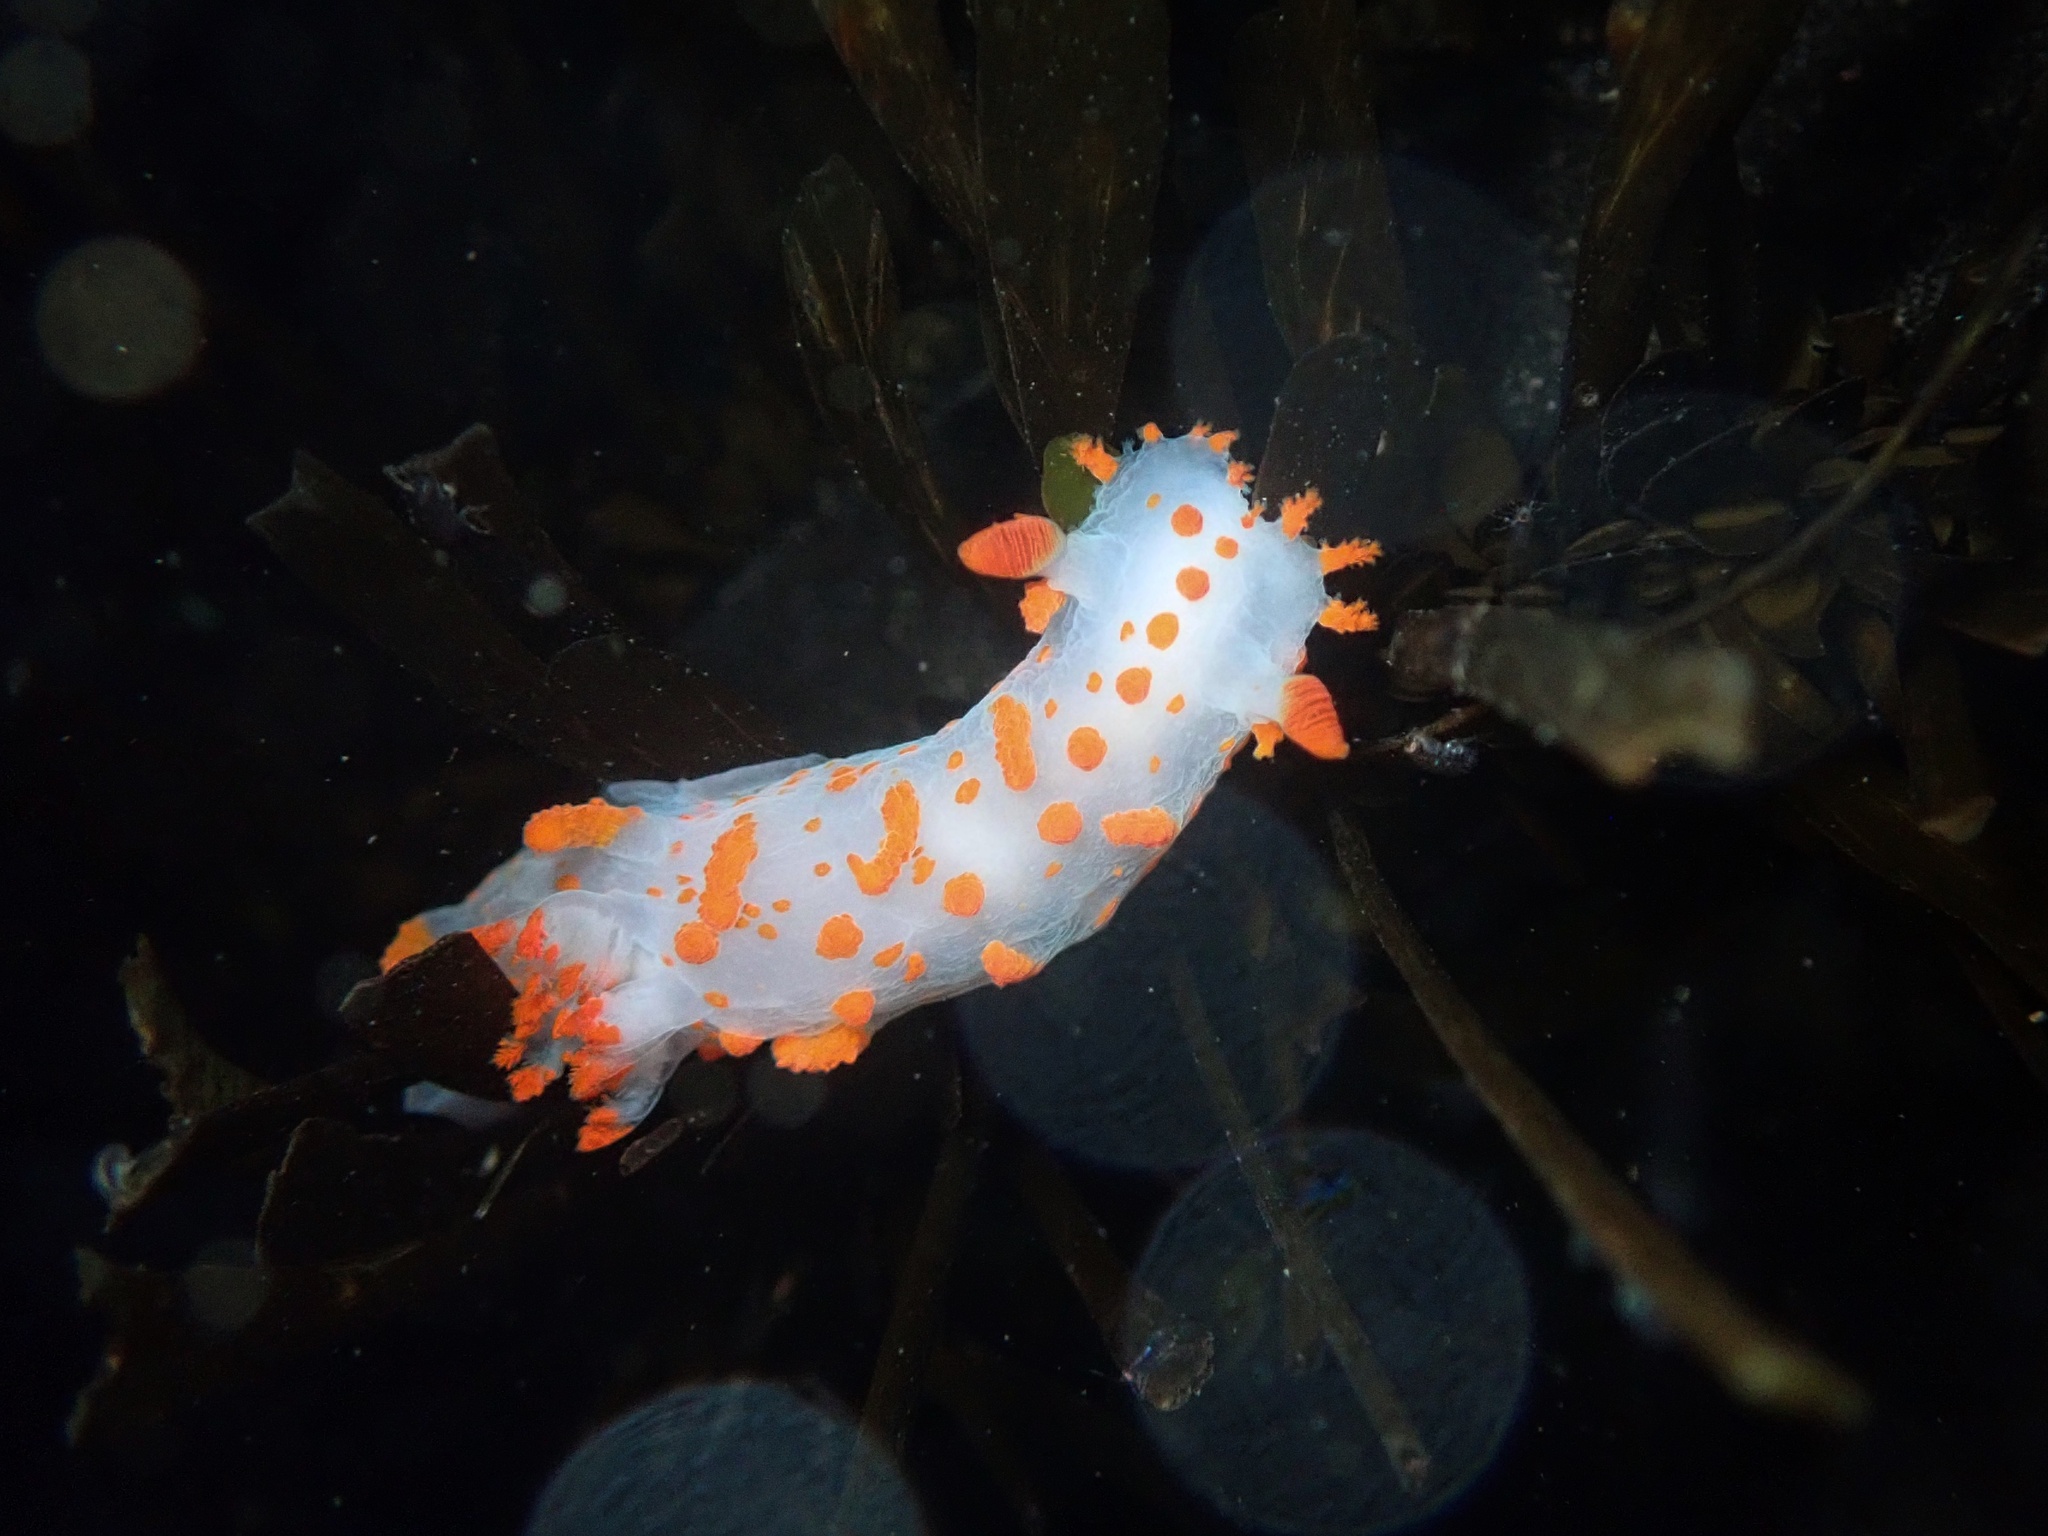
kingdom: Animalia
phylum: Mollusca
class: Gastropoda
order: Nudibranchia
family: Polyceridae
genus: Triopha
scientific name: Triopha catalinae
